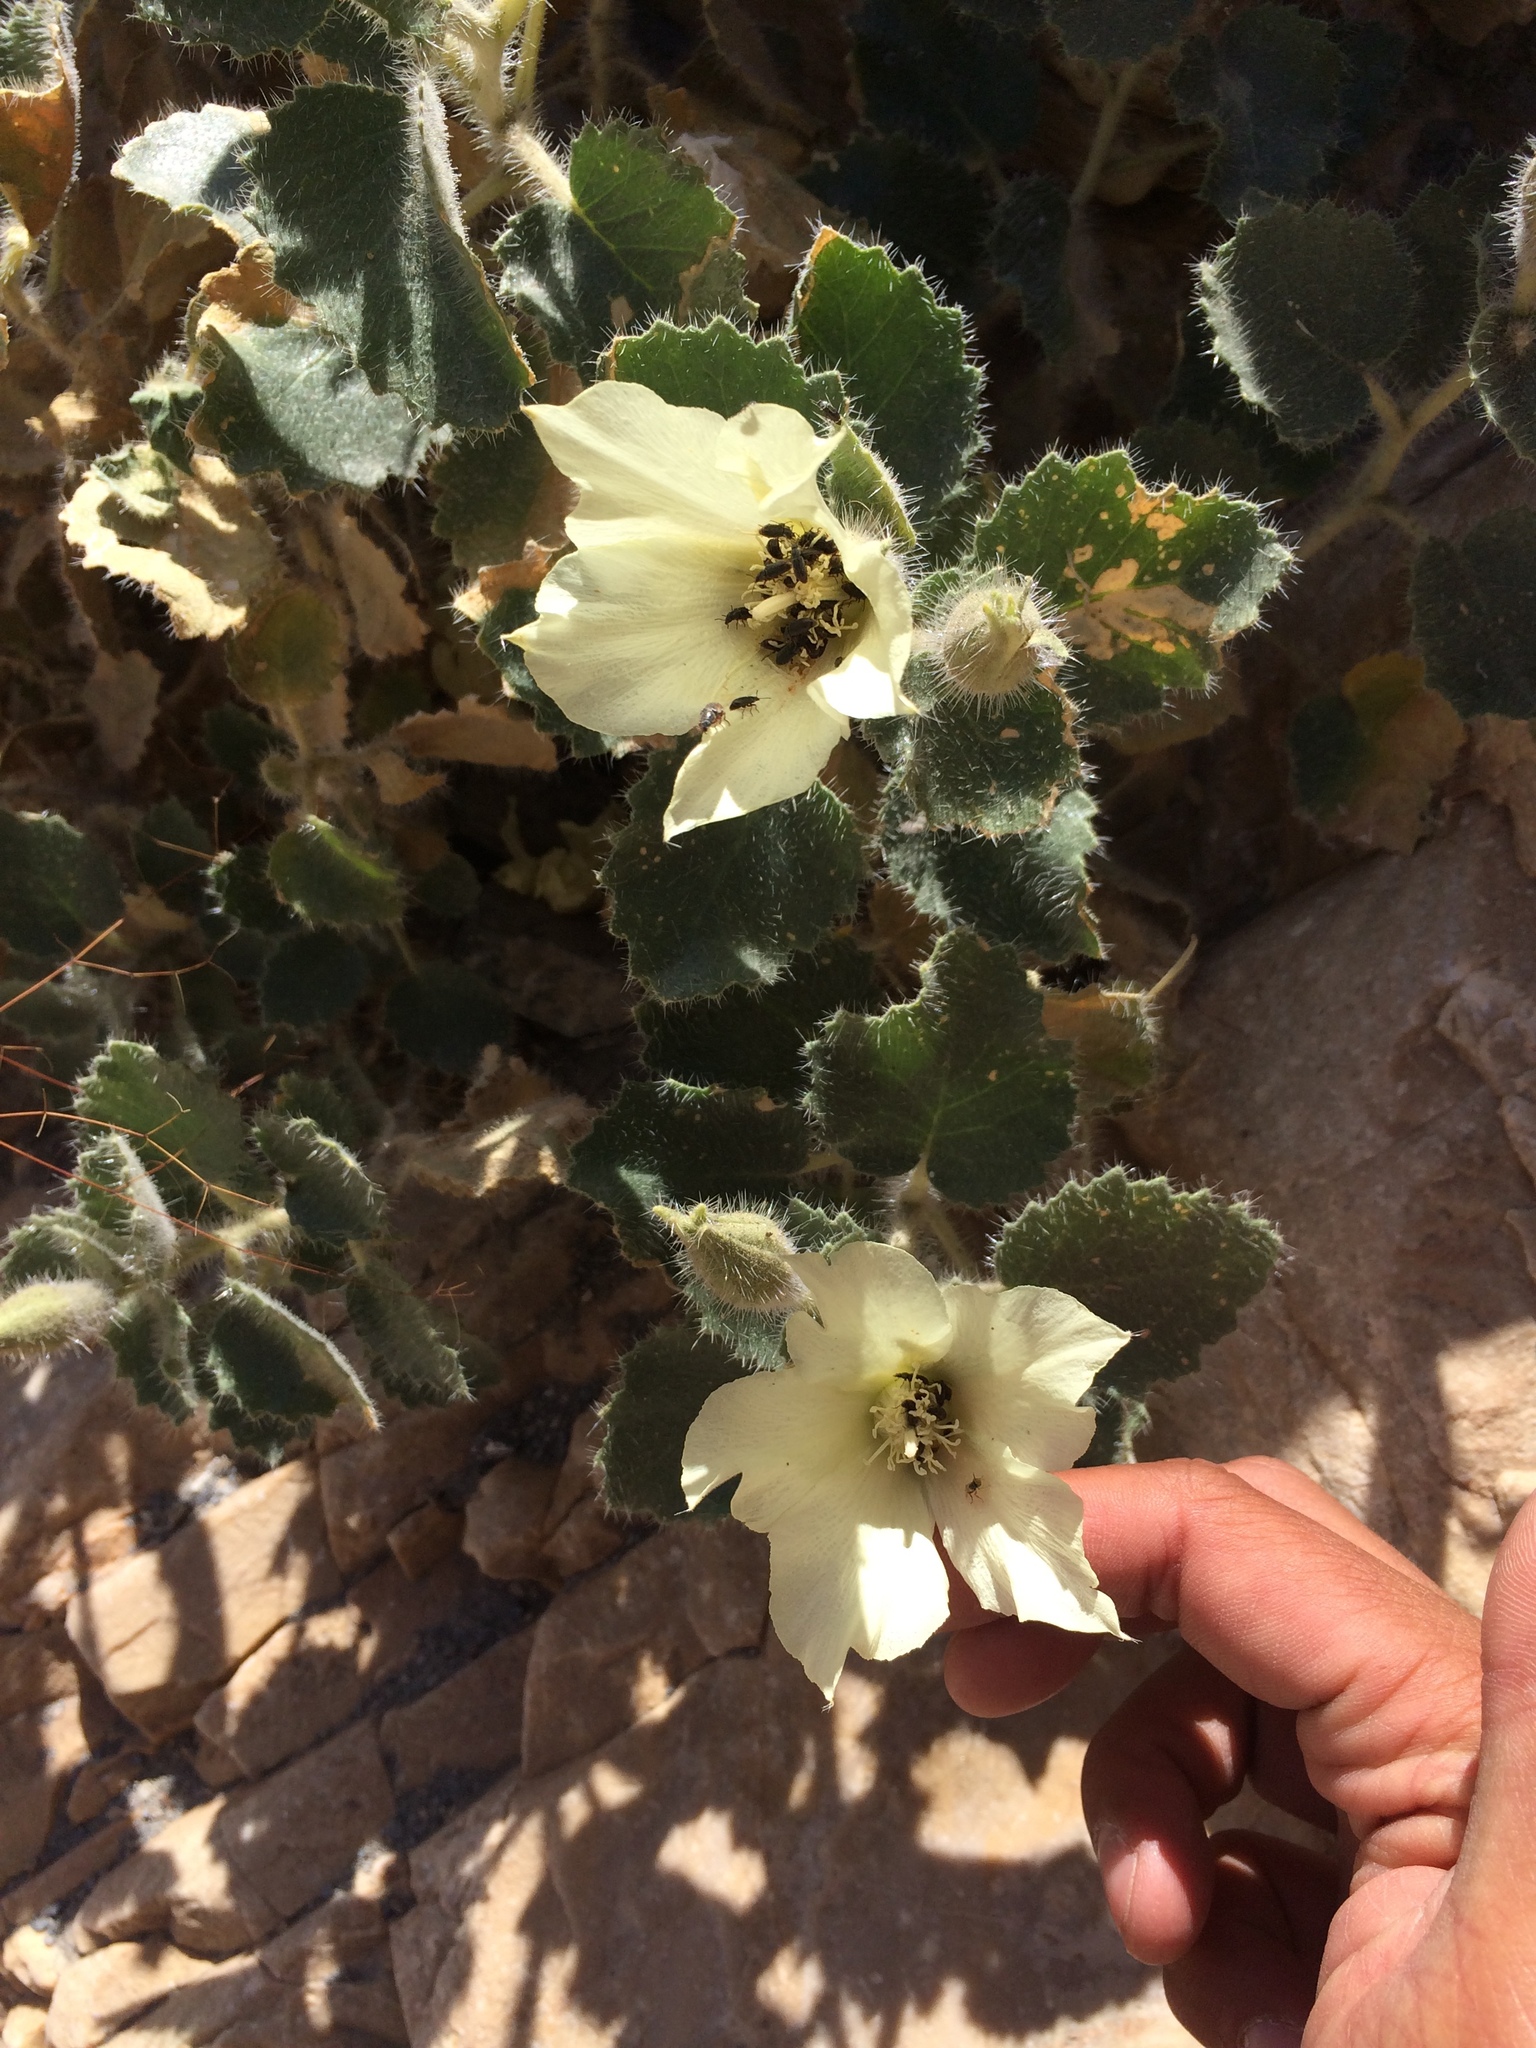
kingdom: Plantae
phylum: Tracheophyta
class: Magnoliopsida
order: Cornales
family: Loasaceae
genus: Eucnide
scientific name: Eucnide urens
